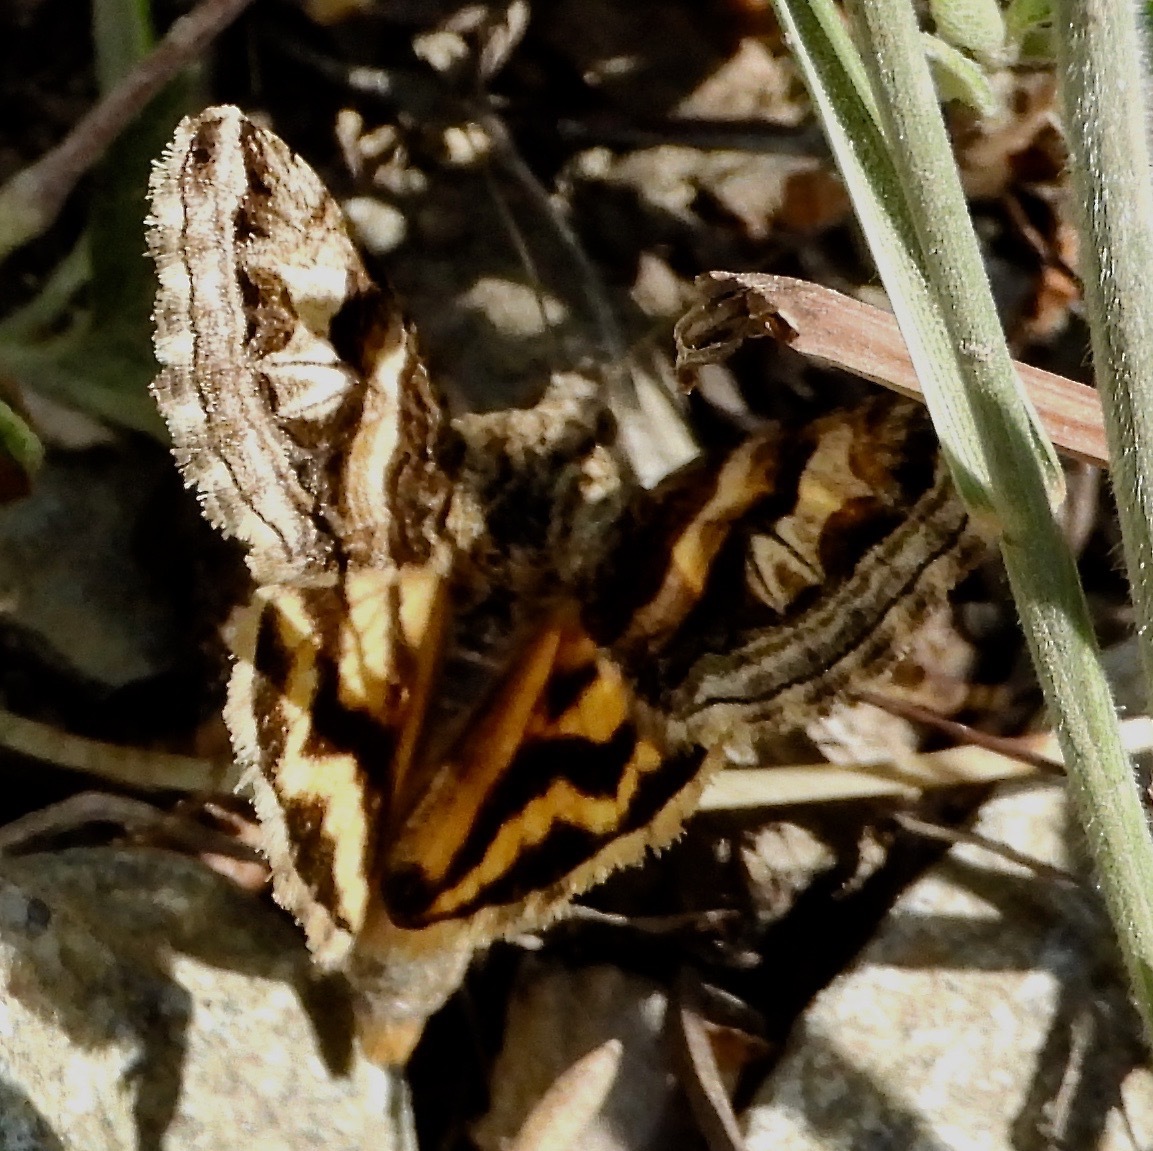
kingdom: Animalia
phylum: Arthropoda
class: Insecta
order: Lepidoptera
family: Erebidae
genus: Drasteria
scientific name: Drasteria parallela
